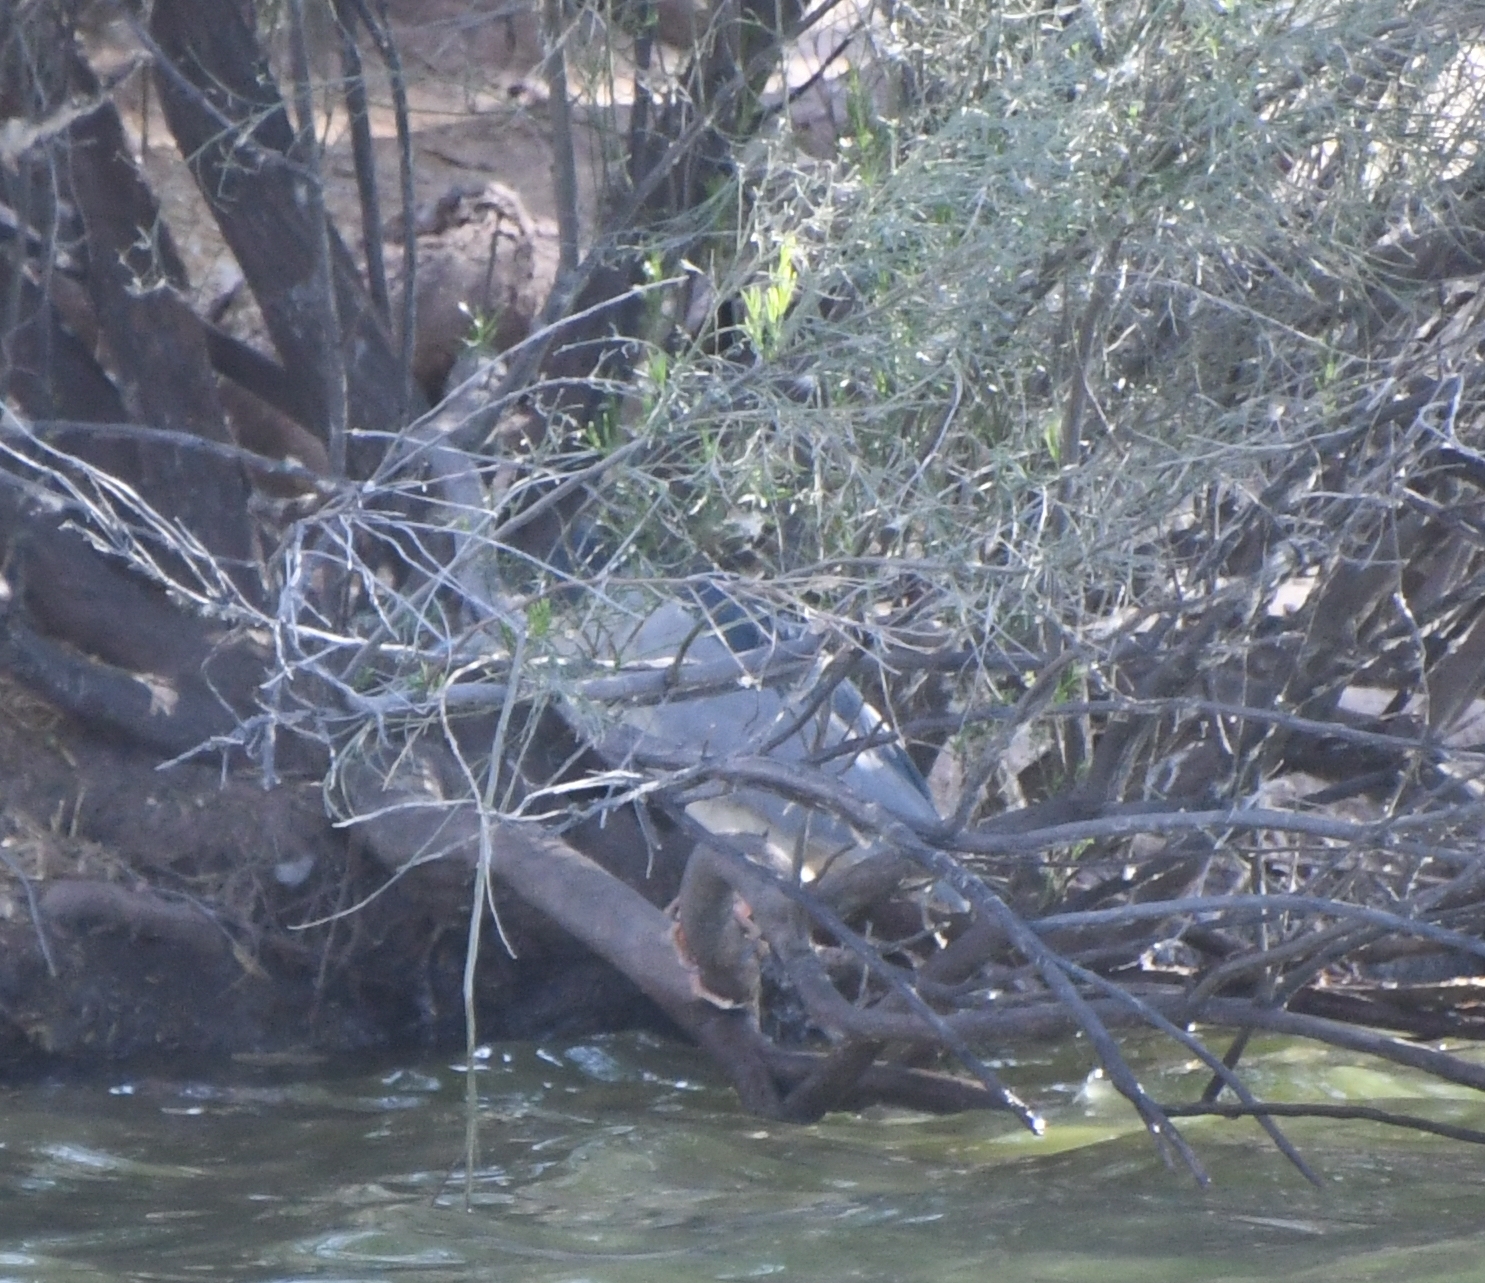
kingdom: Animalia
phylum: Chordata
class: Aves
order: Pelecaniformes
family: Ardeidae
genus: Nycticorax
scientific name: Nycticorax nycticorax
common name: Black-crowned night heron
